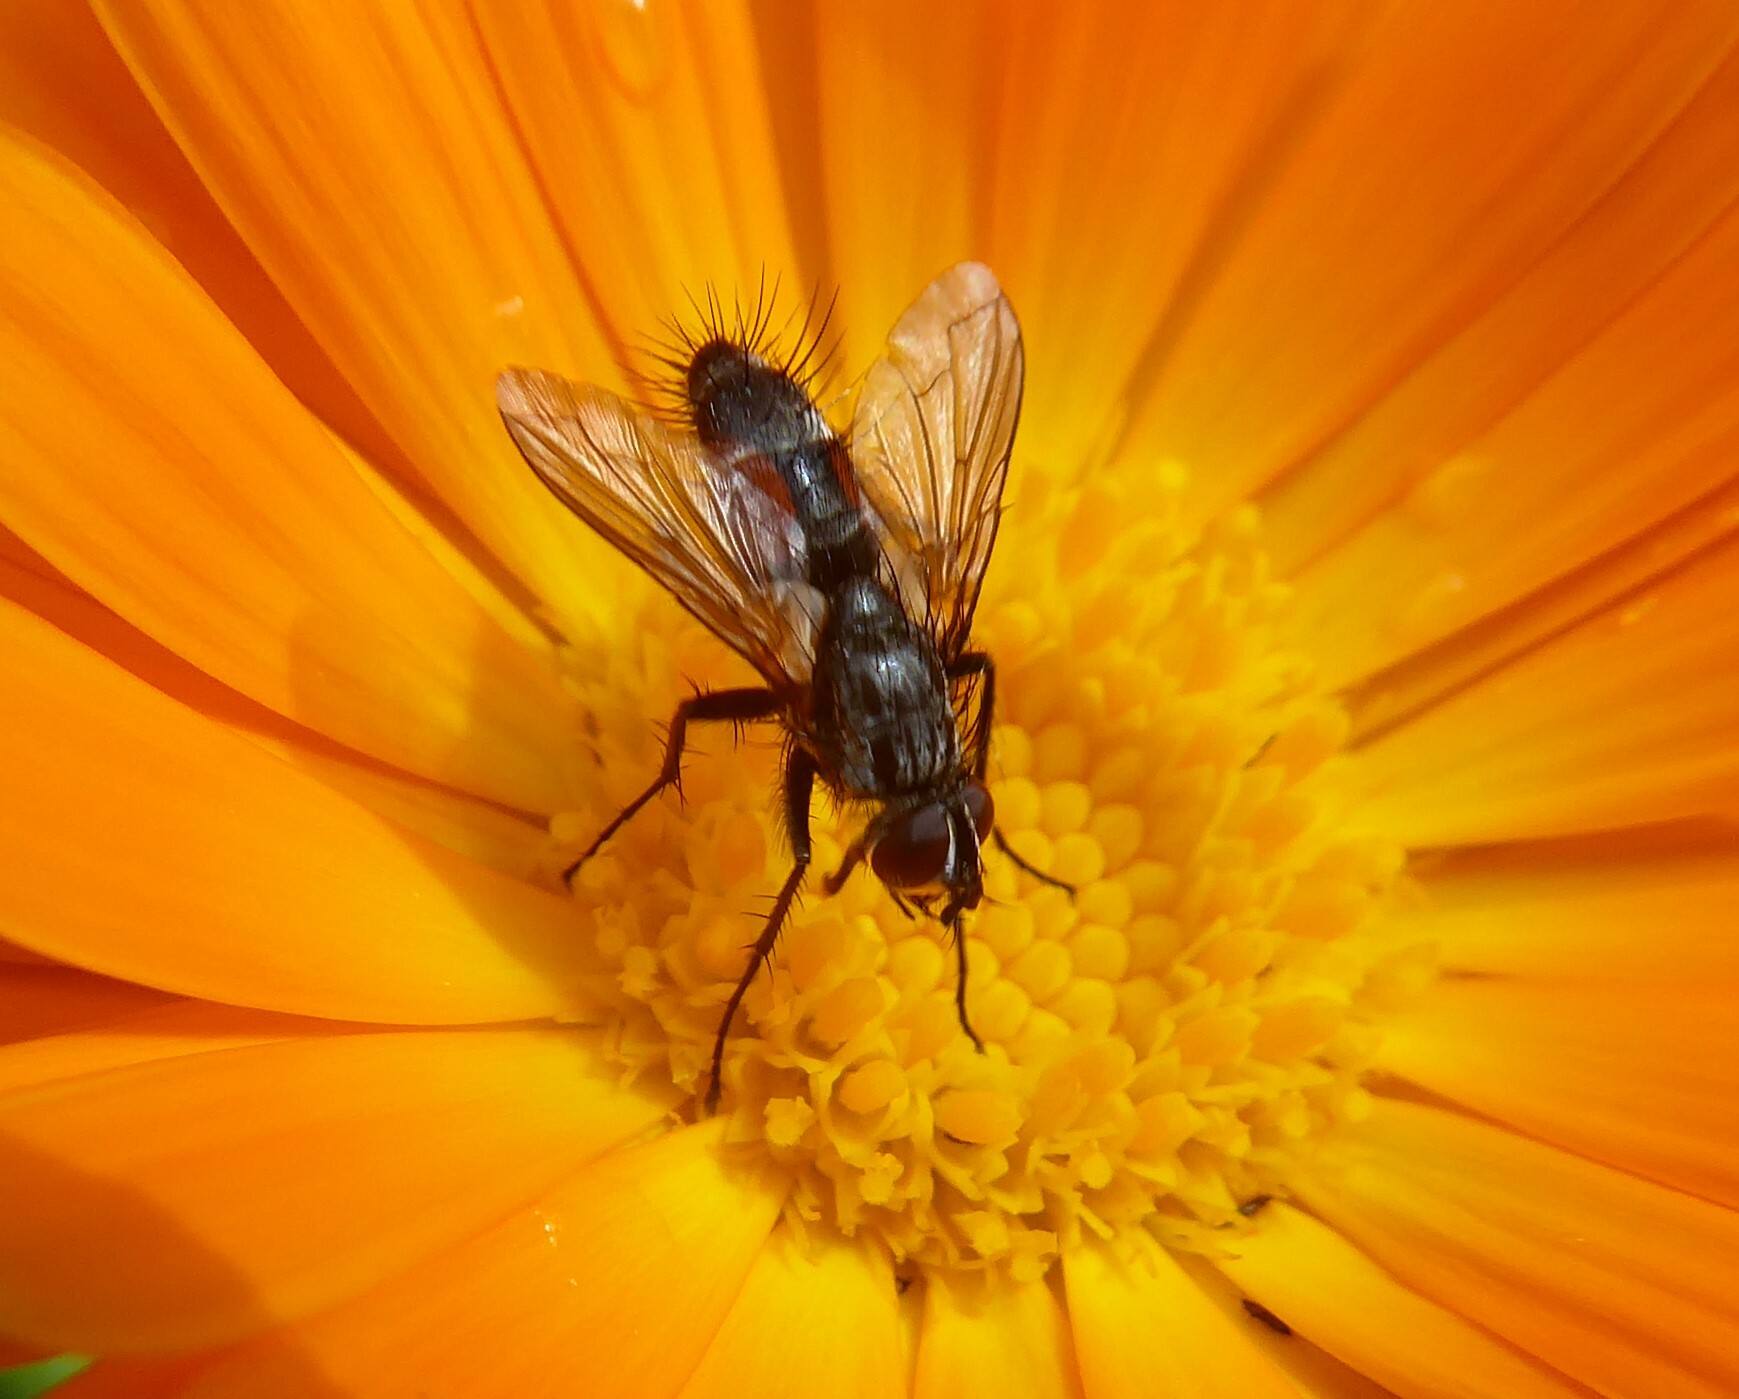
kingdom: Animalia
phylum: Arthropoda
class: Insecta
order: Diptera
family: Tachinidae
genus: Eriothrix
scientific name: Eriothrix rufomaculatus
